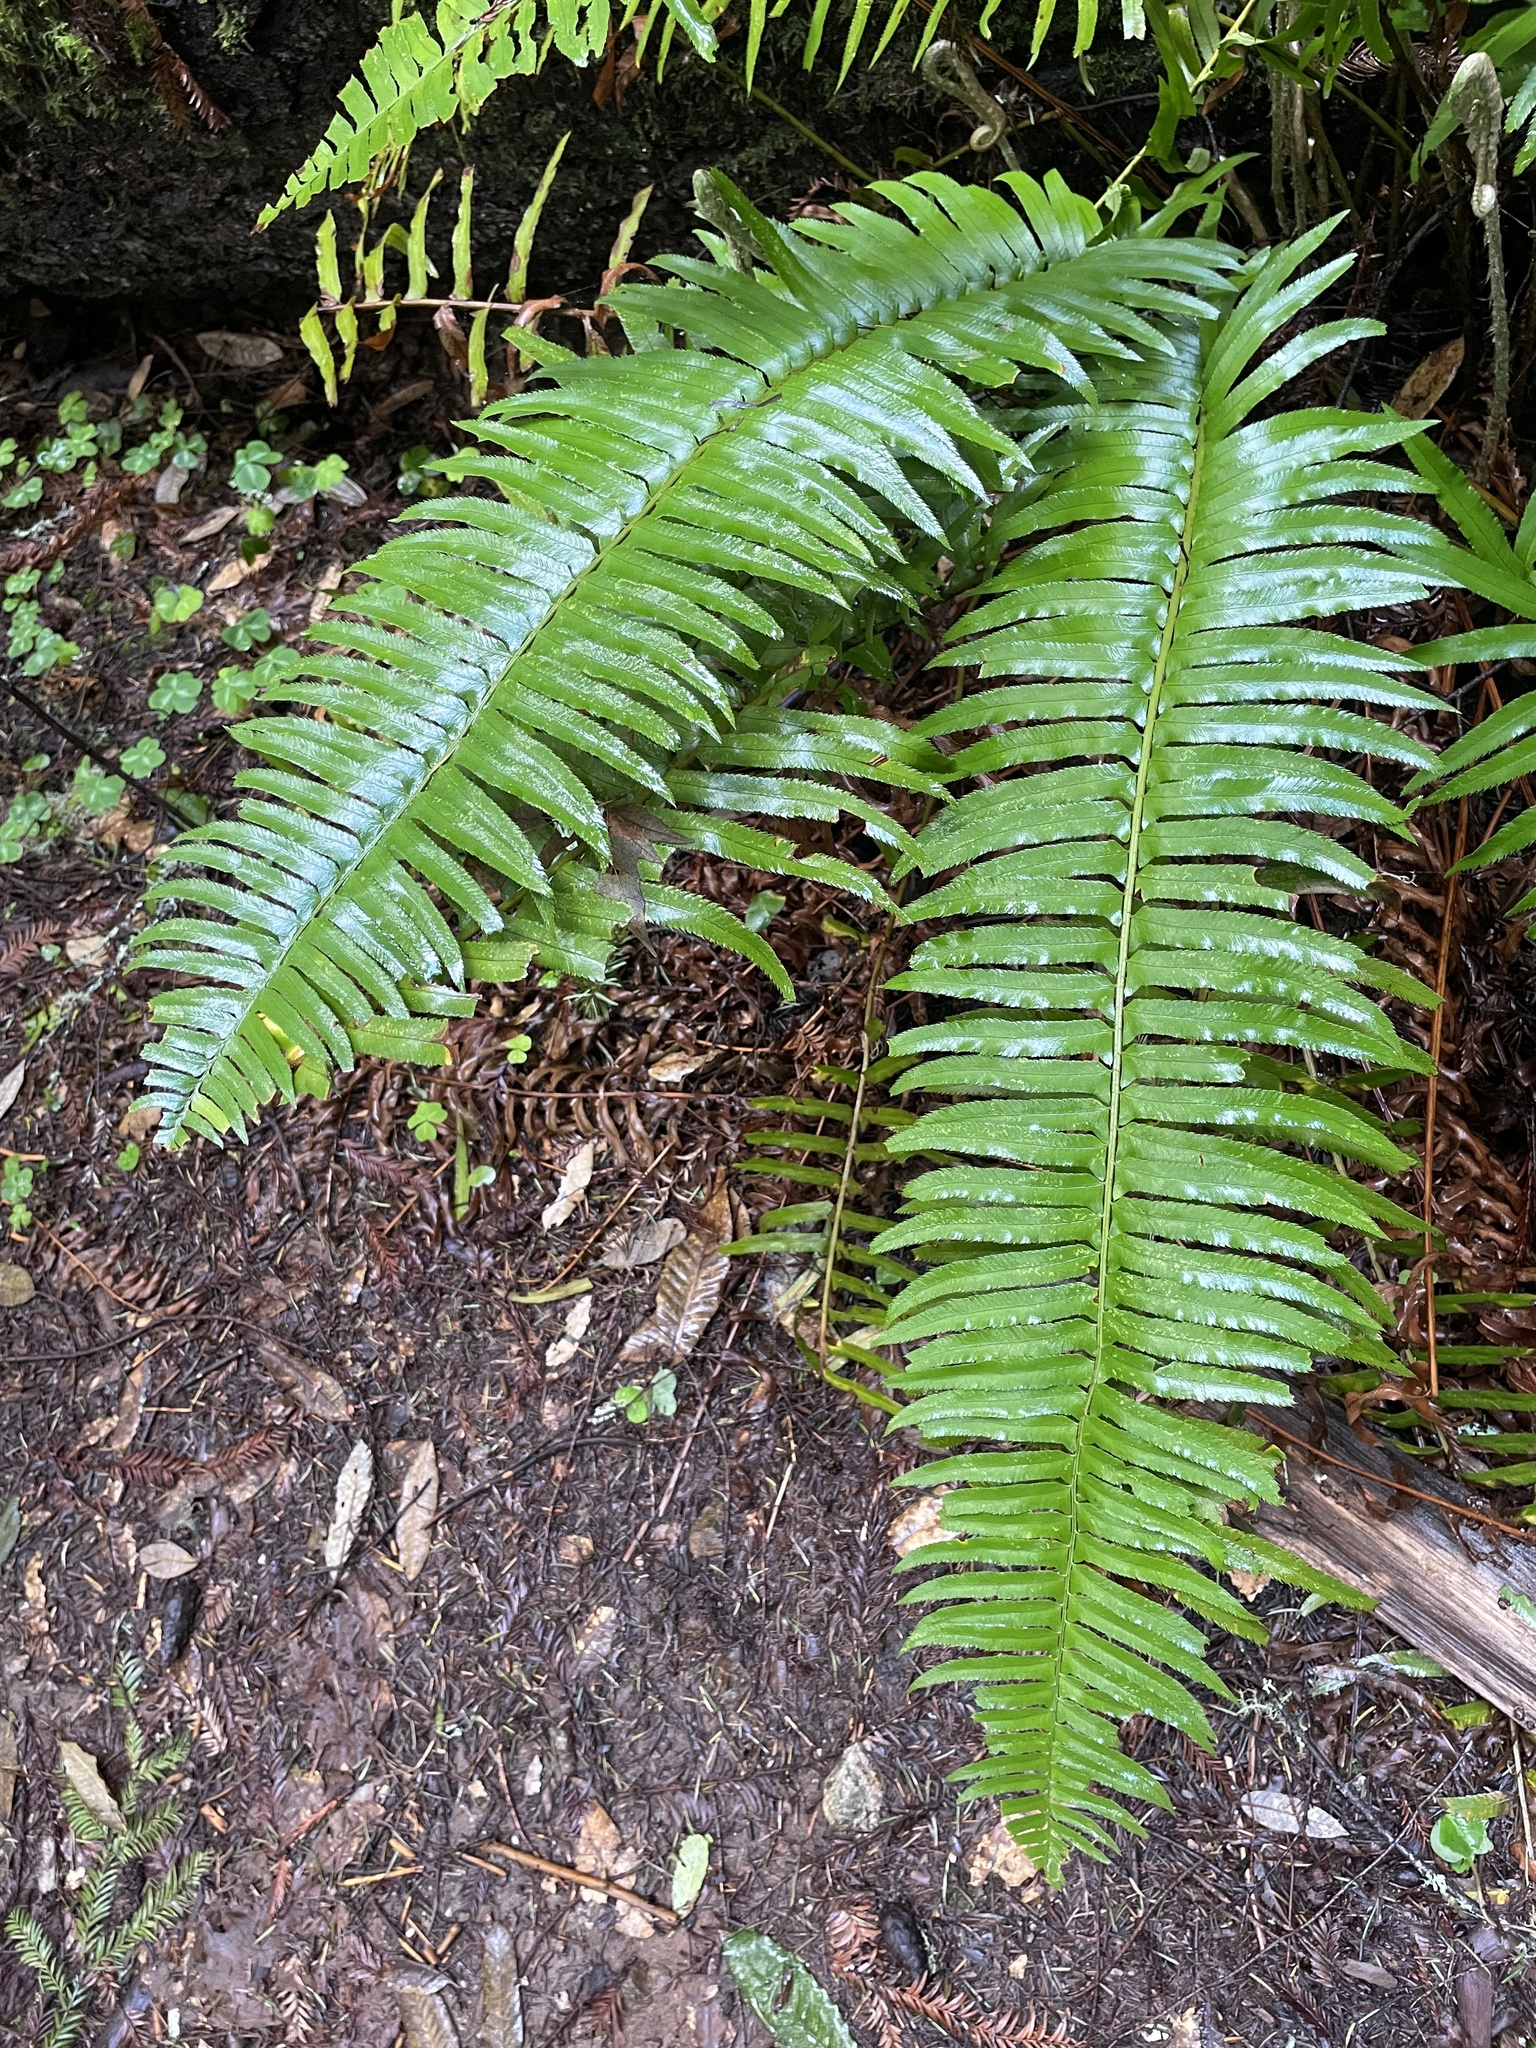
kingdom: Plantae
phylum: Tracheophyta
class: Polypodiopsida
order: Polypodiales
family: Dryopteridaceae
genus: Polystichum
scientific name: Polystichum munitum
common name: Western sword-fern
